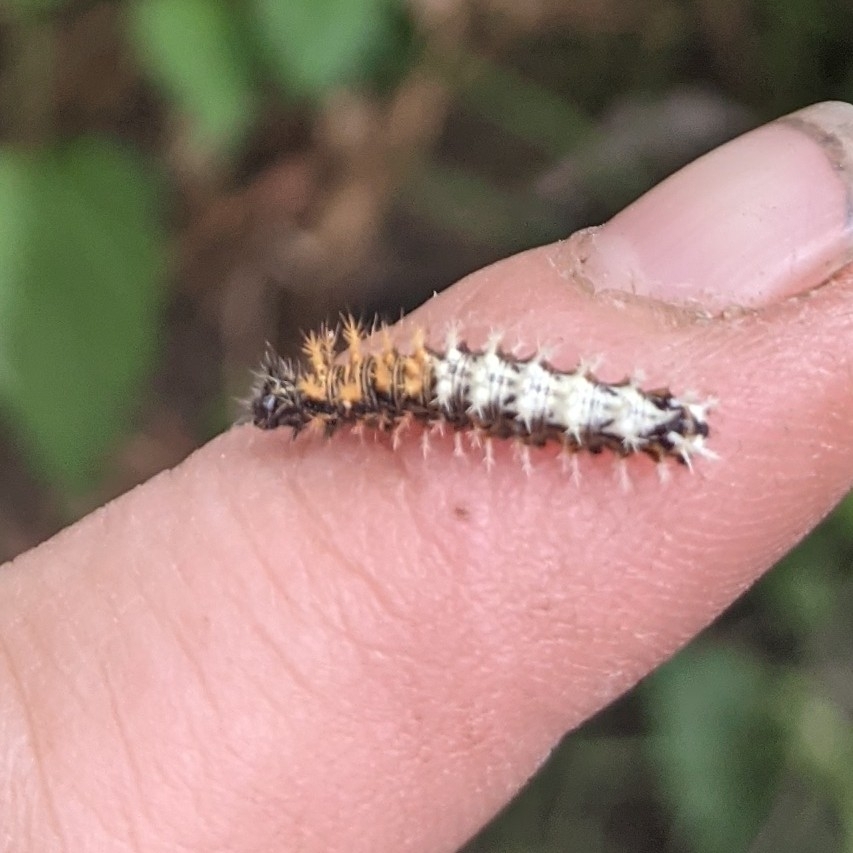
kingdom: Animalia
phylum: Arthropoda
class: Insecta
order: Lepidoptera
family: Nymphalidae
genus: Polygonia
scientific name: Polygonia c-album
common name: Comma
